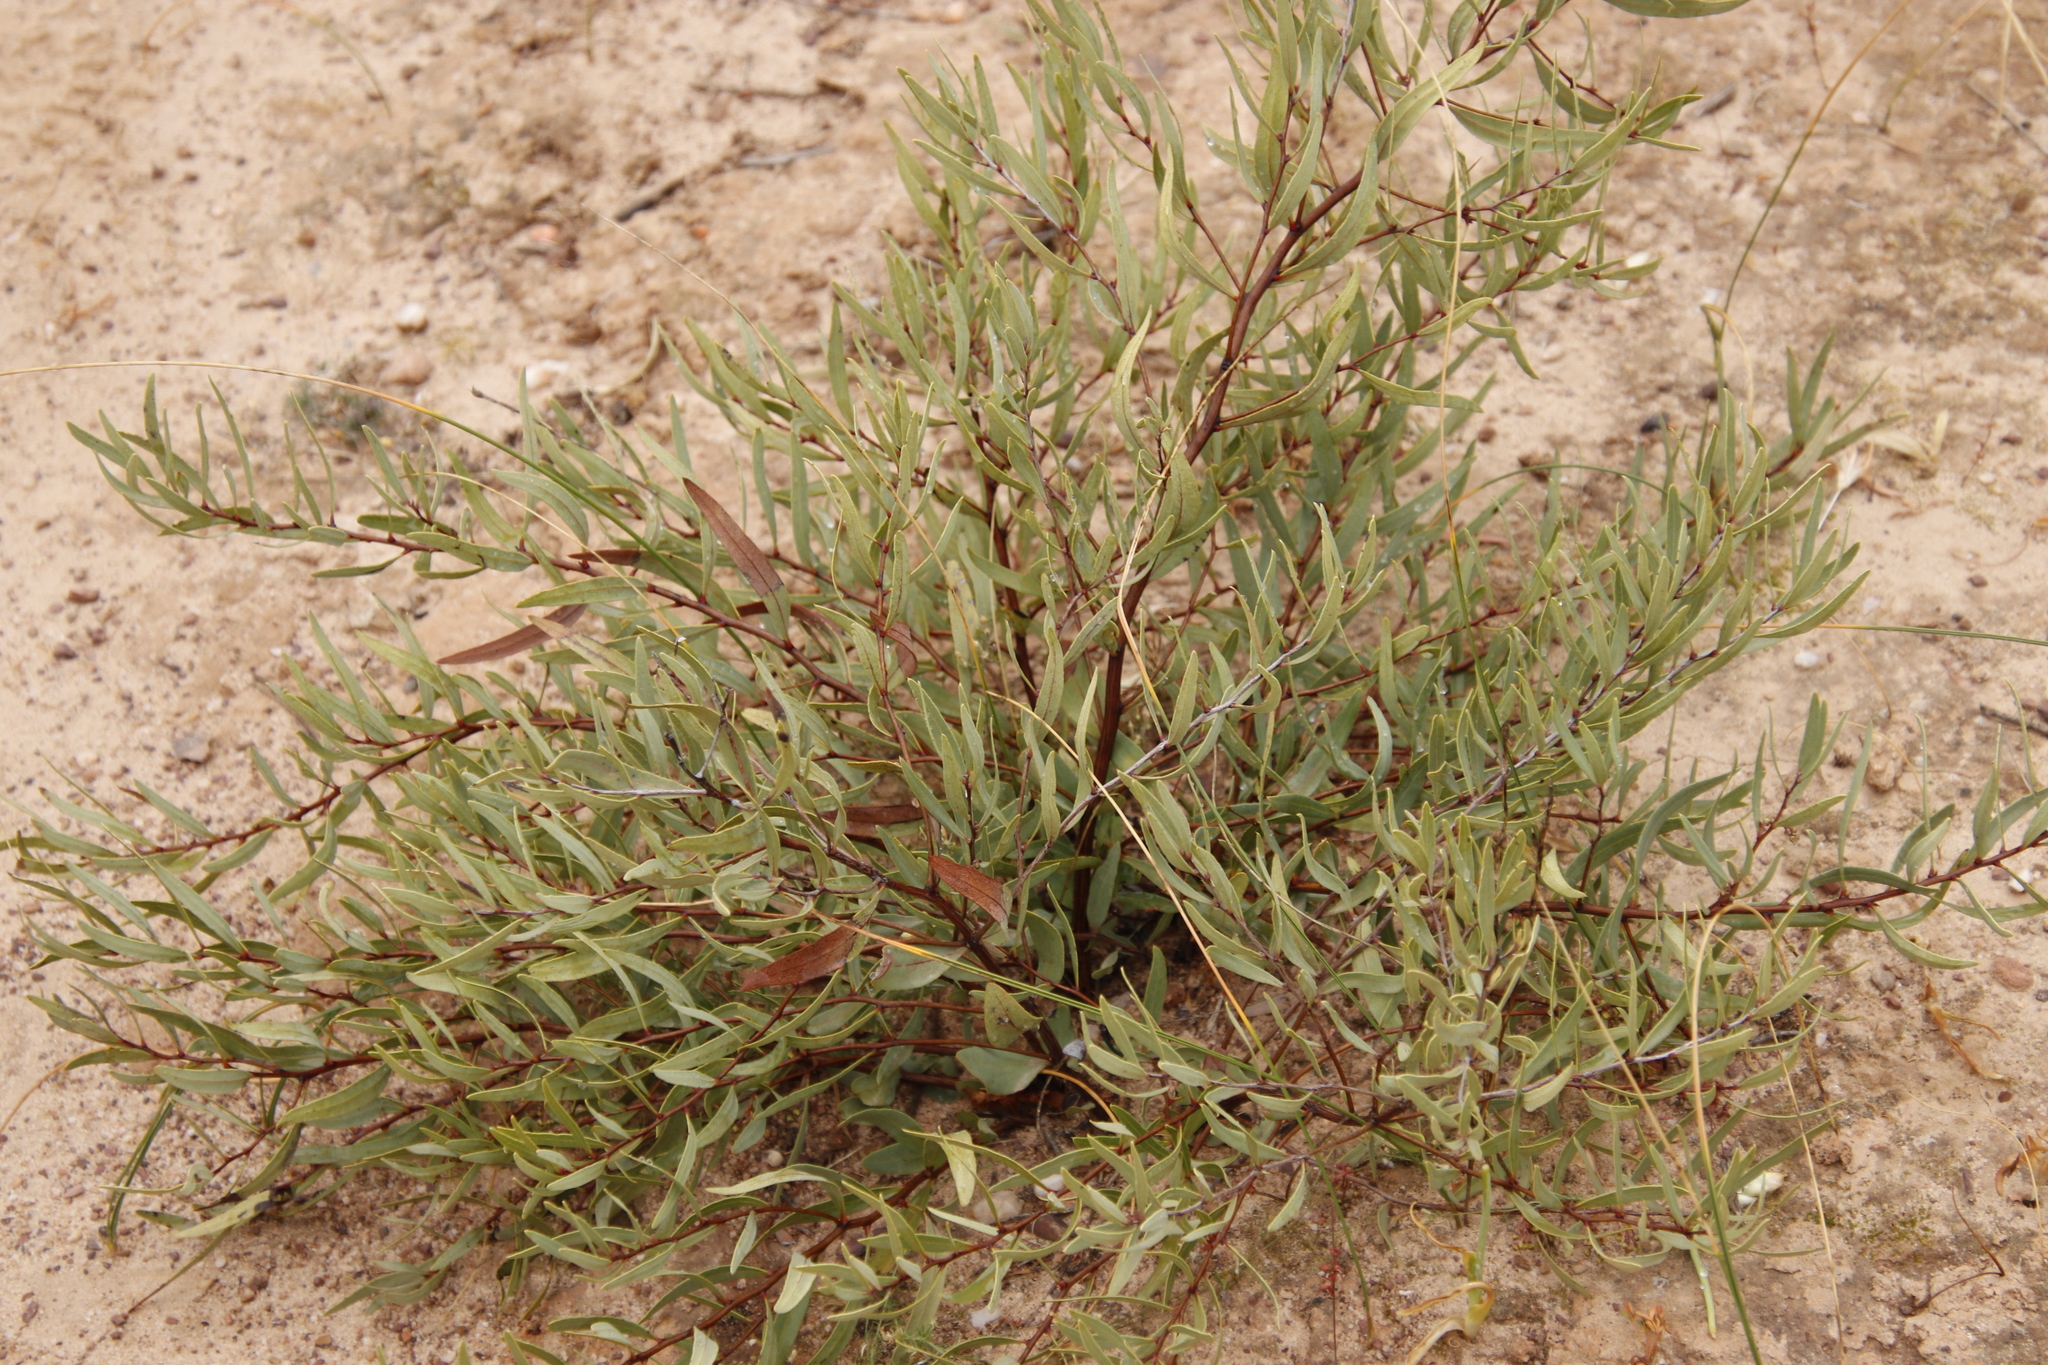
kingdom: Plantae
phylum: Tracheophyta
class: Magnoliopsida
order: Ericales
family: Ebenaceae
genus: Euclea
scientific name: Euclea lancea
